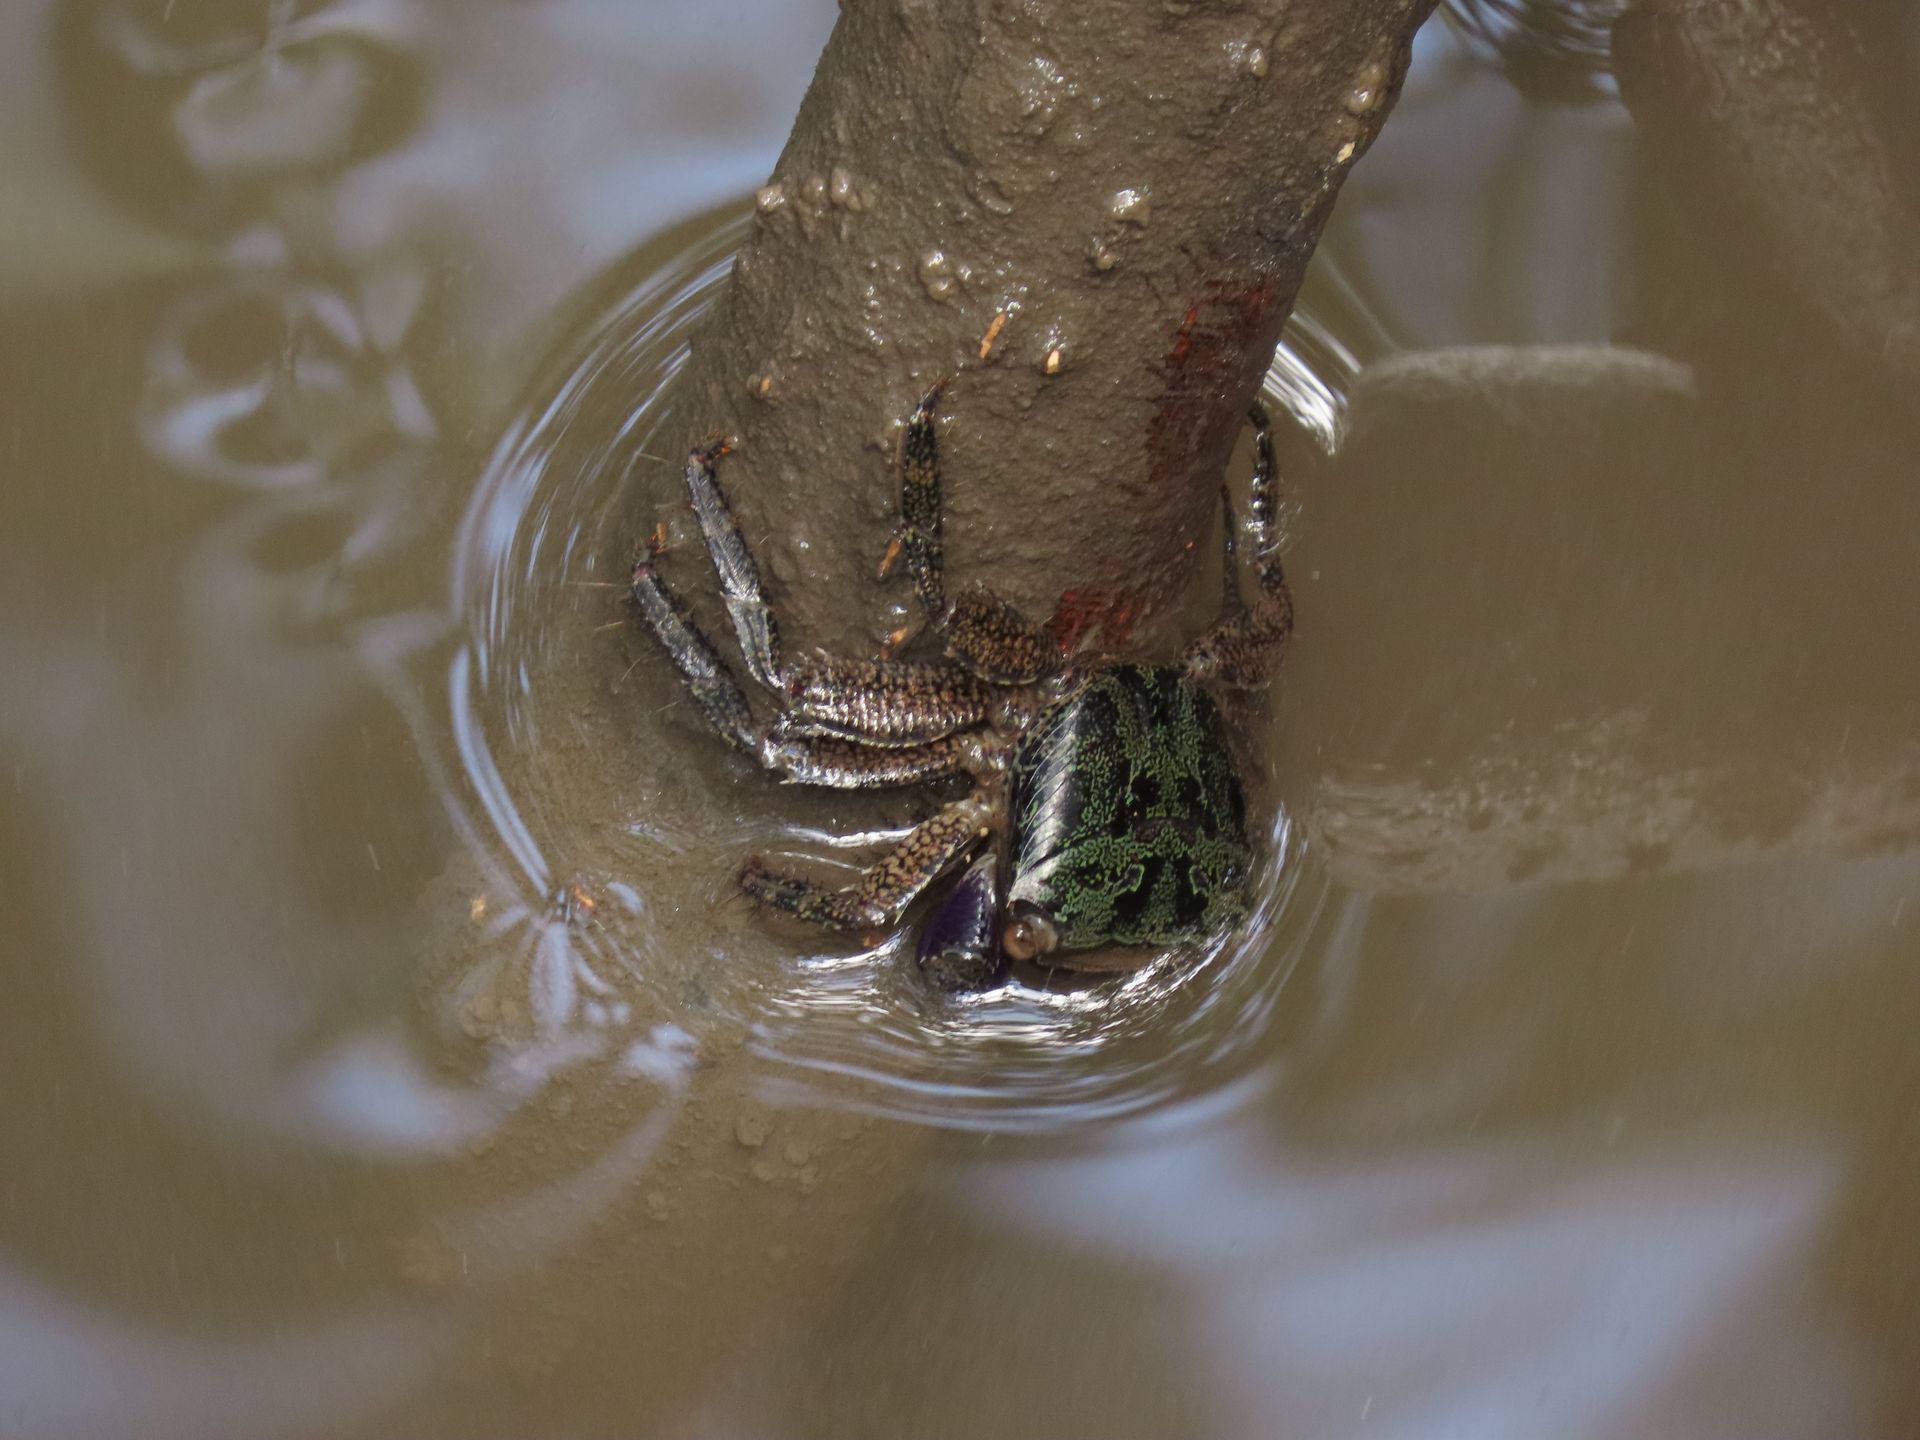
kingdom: Animalia
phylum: Arthropoda
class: Malacostraca
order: Decapoda
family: Grapsidae
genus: Metopograpsus
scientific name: Metopograpsus frontalis
